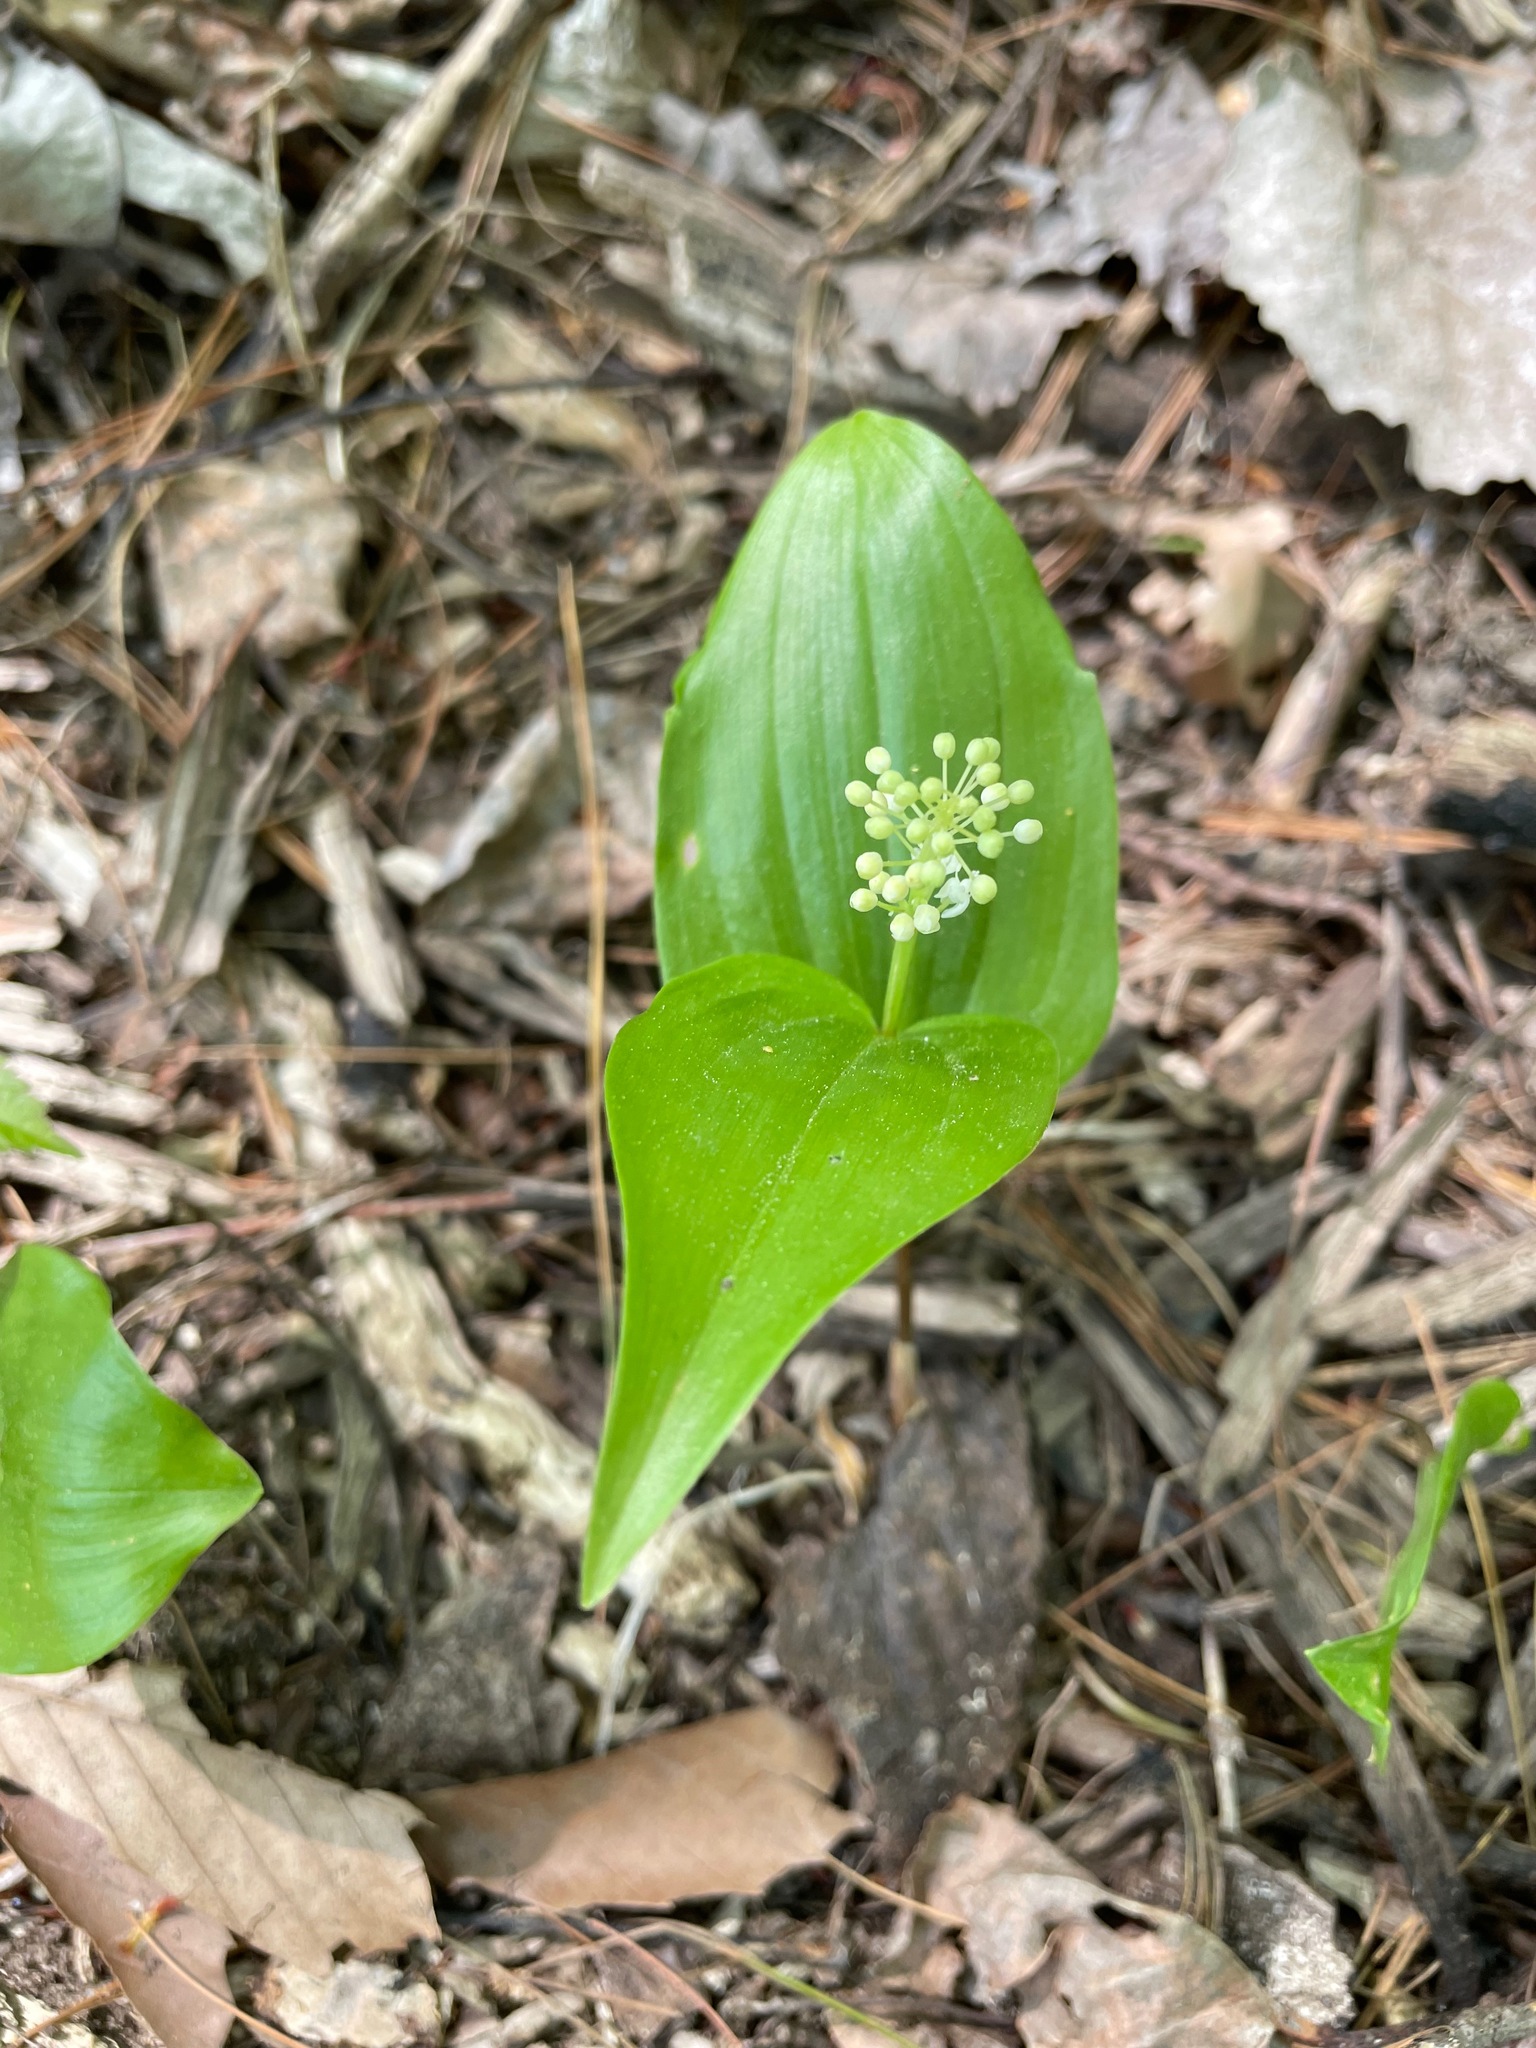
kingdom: Plantae
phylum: Tracheophyta
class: Liliopsida
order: Asparagales
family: Asparagaceae
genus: Maianthemum
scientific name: Maianthemum canadense
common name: False lily-of-the-valley
